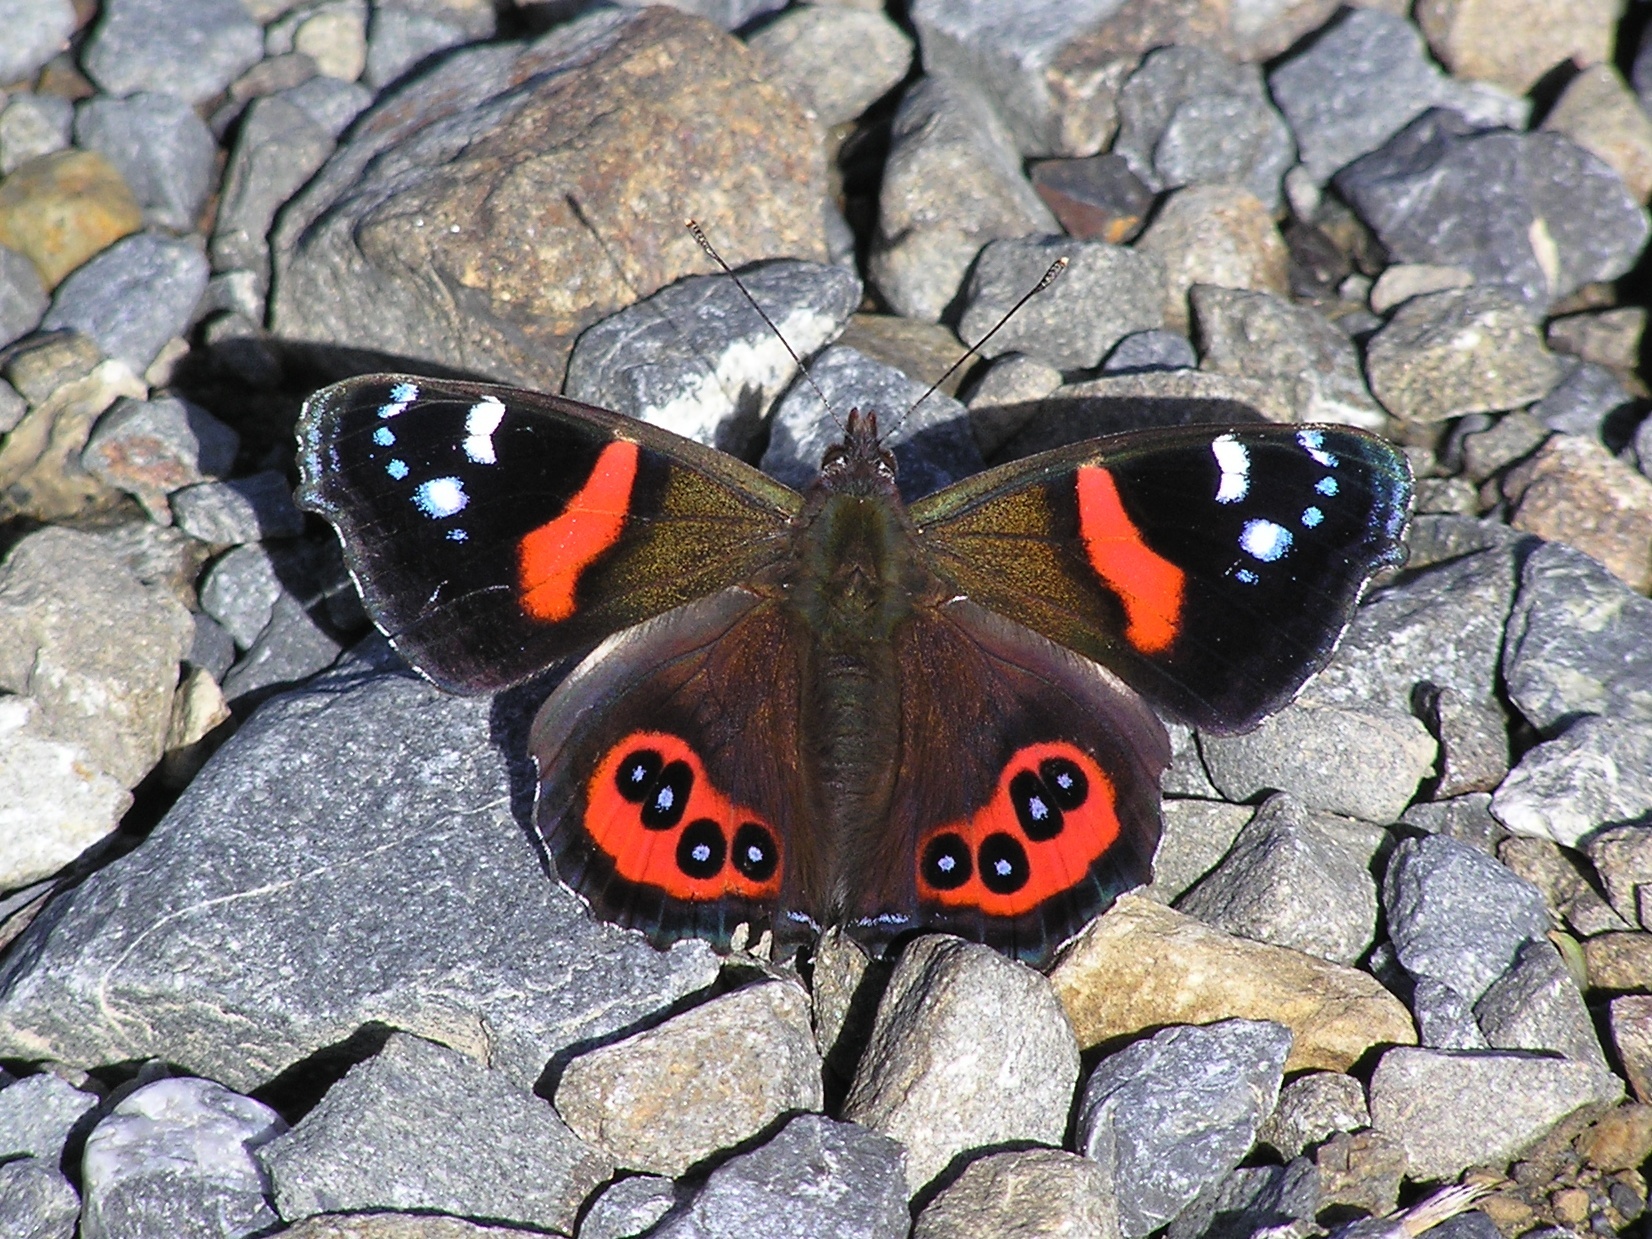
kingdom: Animalia
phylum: Arthropoda
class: Insecta
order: Lepidoptera
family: Nymphalidae
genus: Vanessa
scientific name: Vanessa gonerilla
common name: New zealand red admiral
